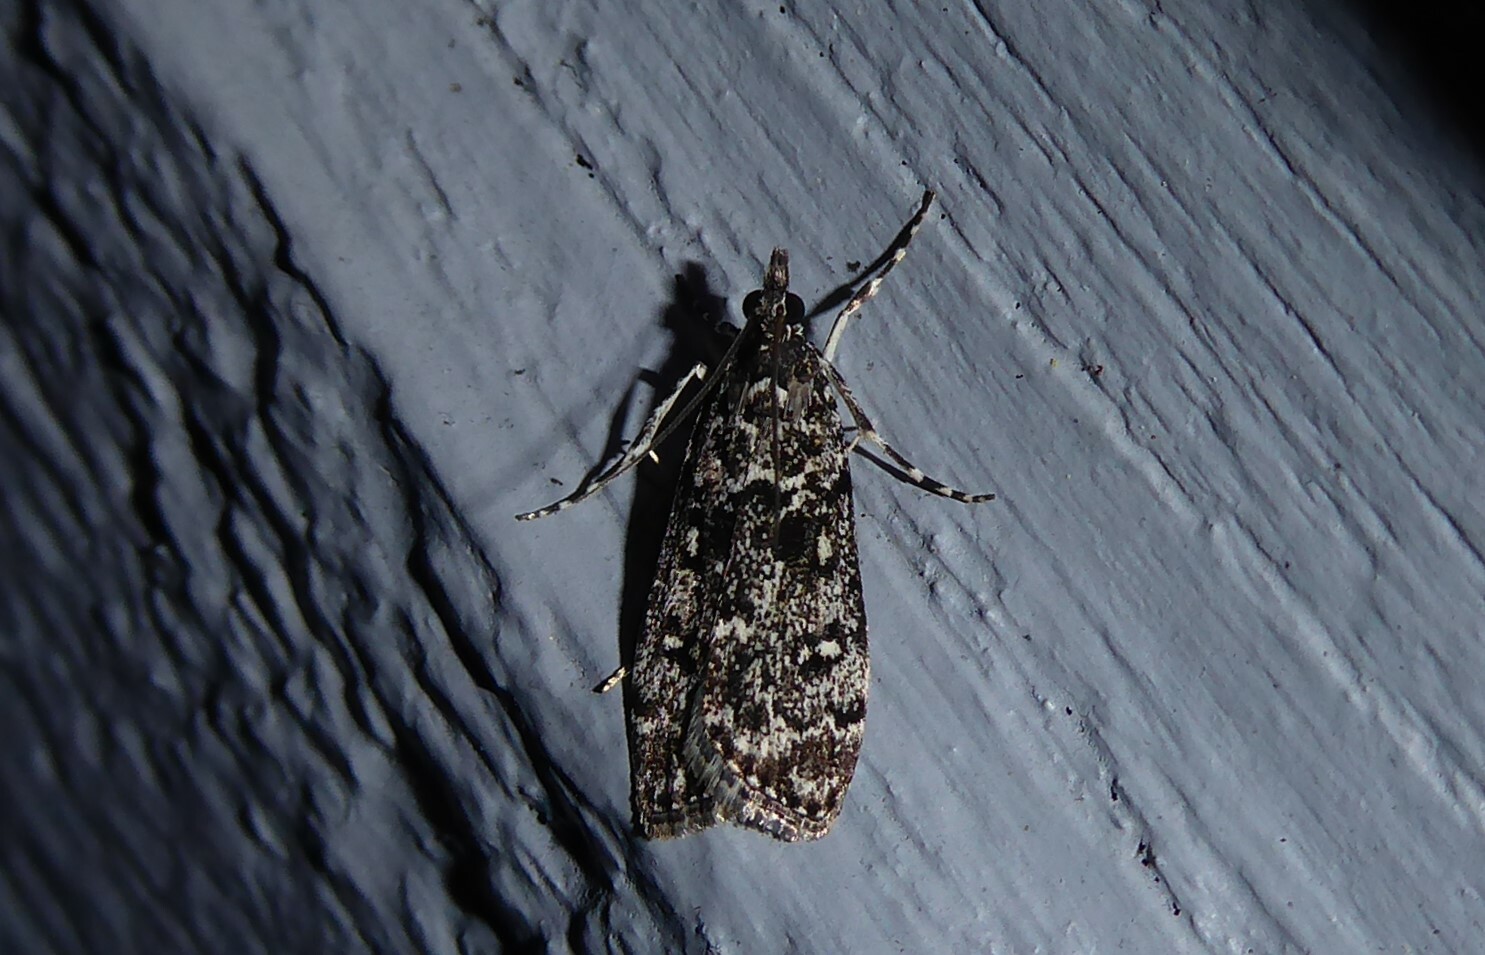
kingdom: Animalia
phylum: Arthropoda
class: Insecta
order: Lepidoptera
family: Crambidae
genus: Eudonia
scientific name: Eudonia philerga
